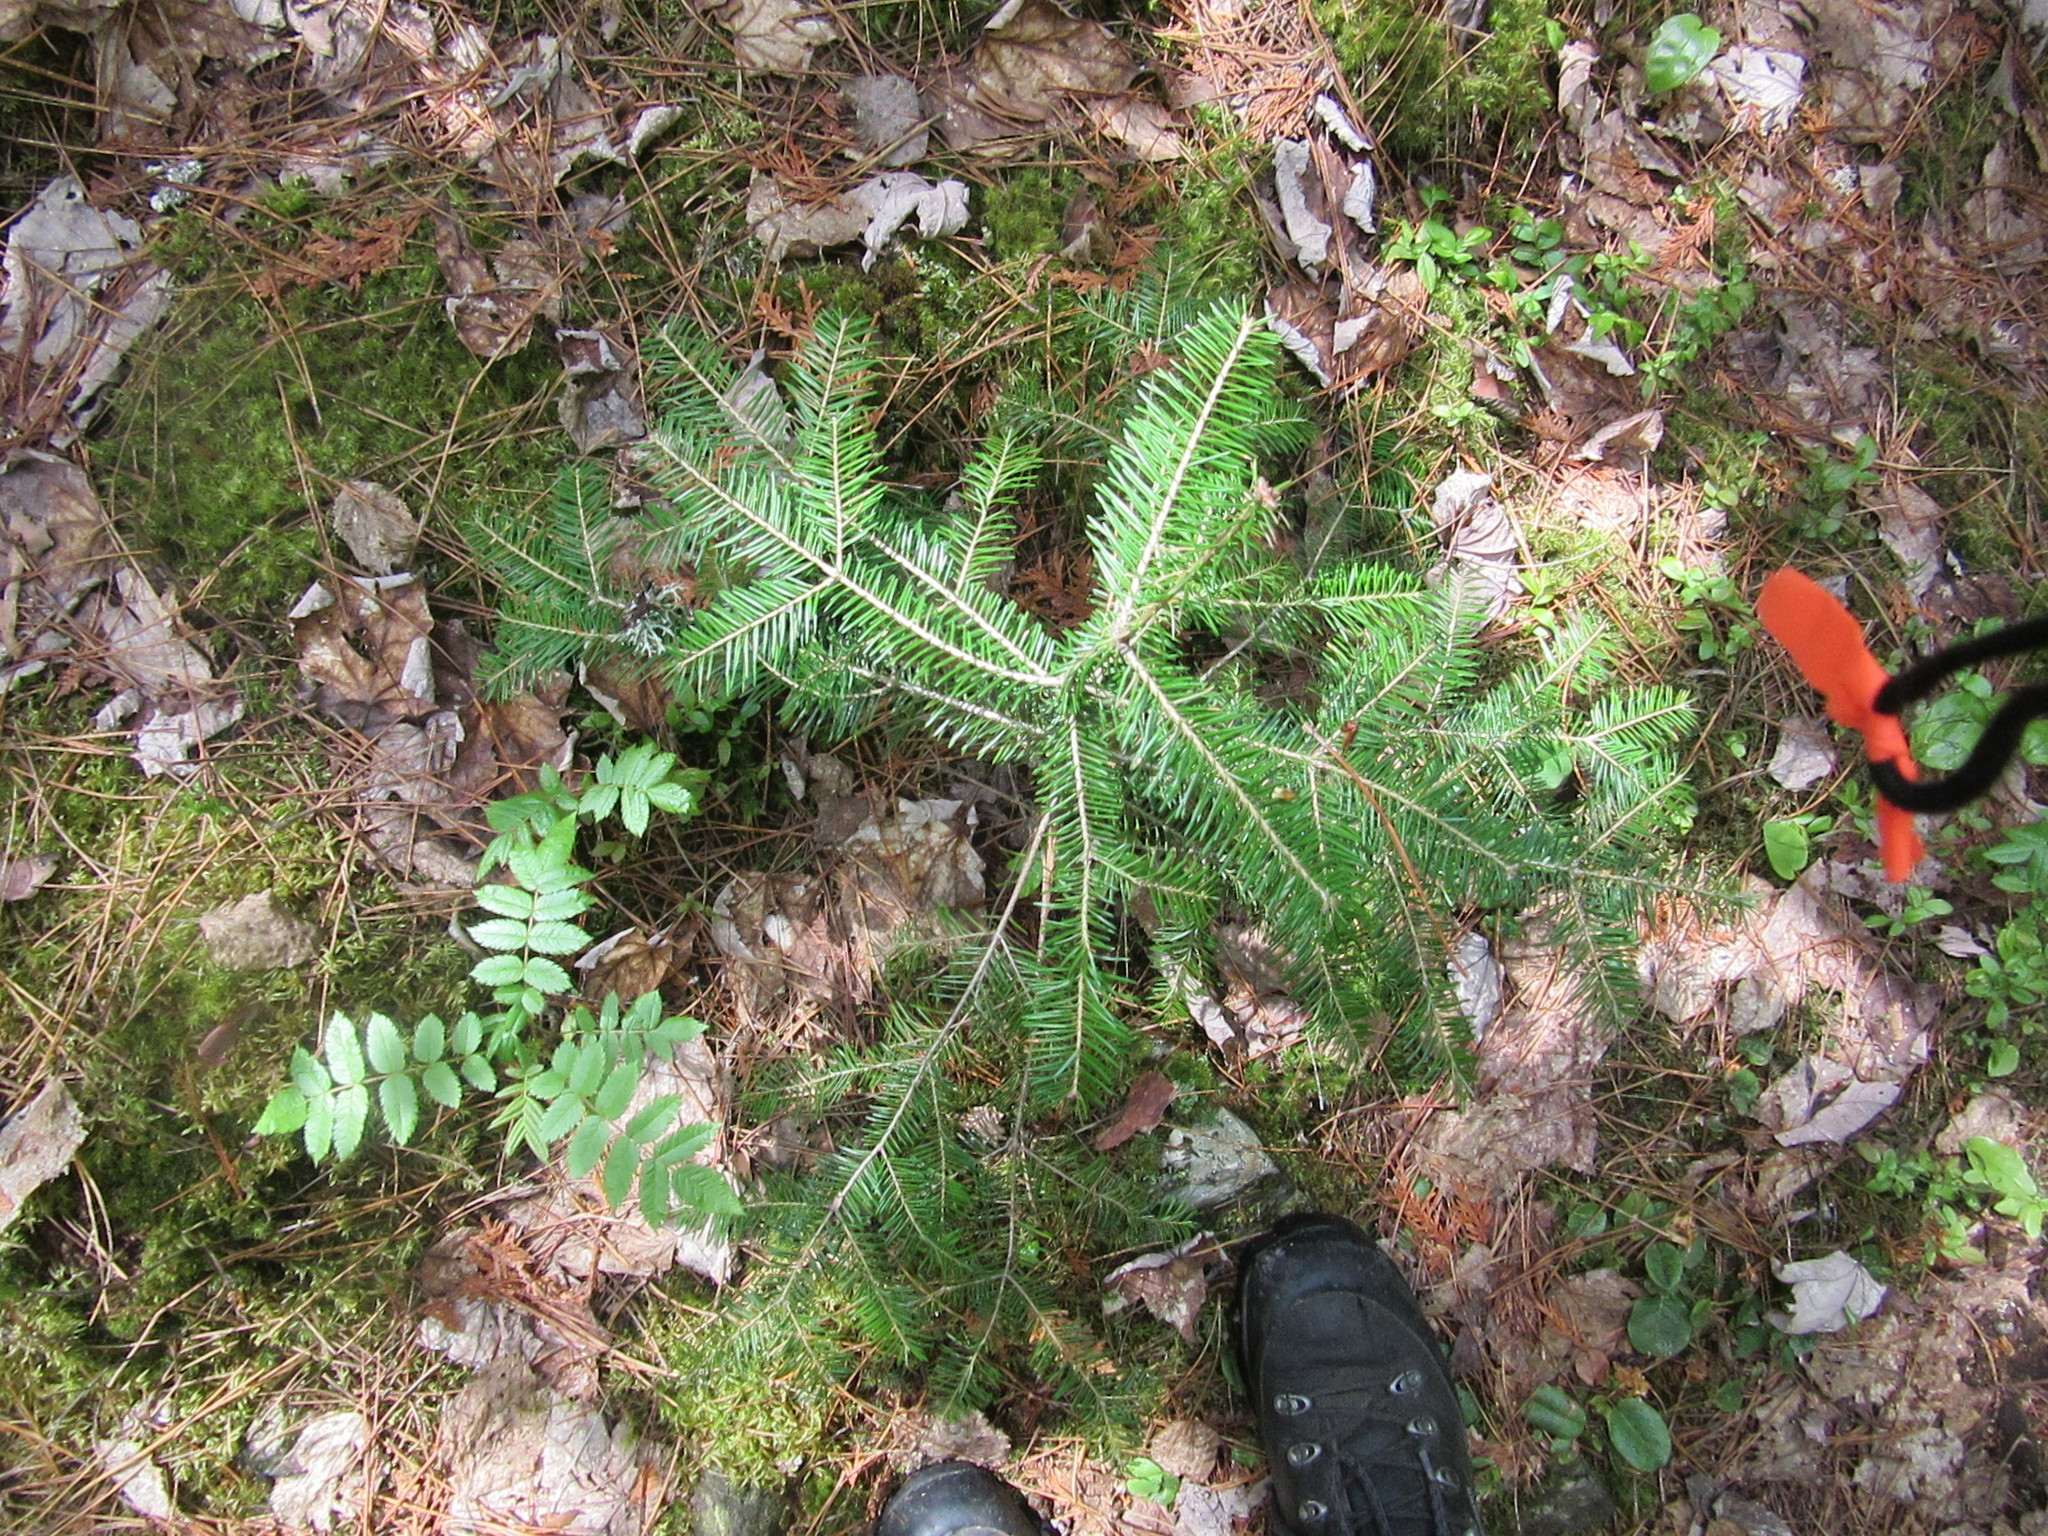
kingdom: Plantae
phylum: Tracheophyta
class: Pinopsida
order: Pinales
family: Pinaceae
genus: Abies
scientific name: Abies balsamea
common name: Balsam fir
